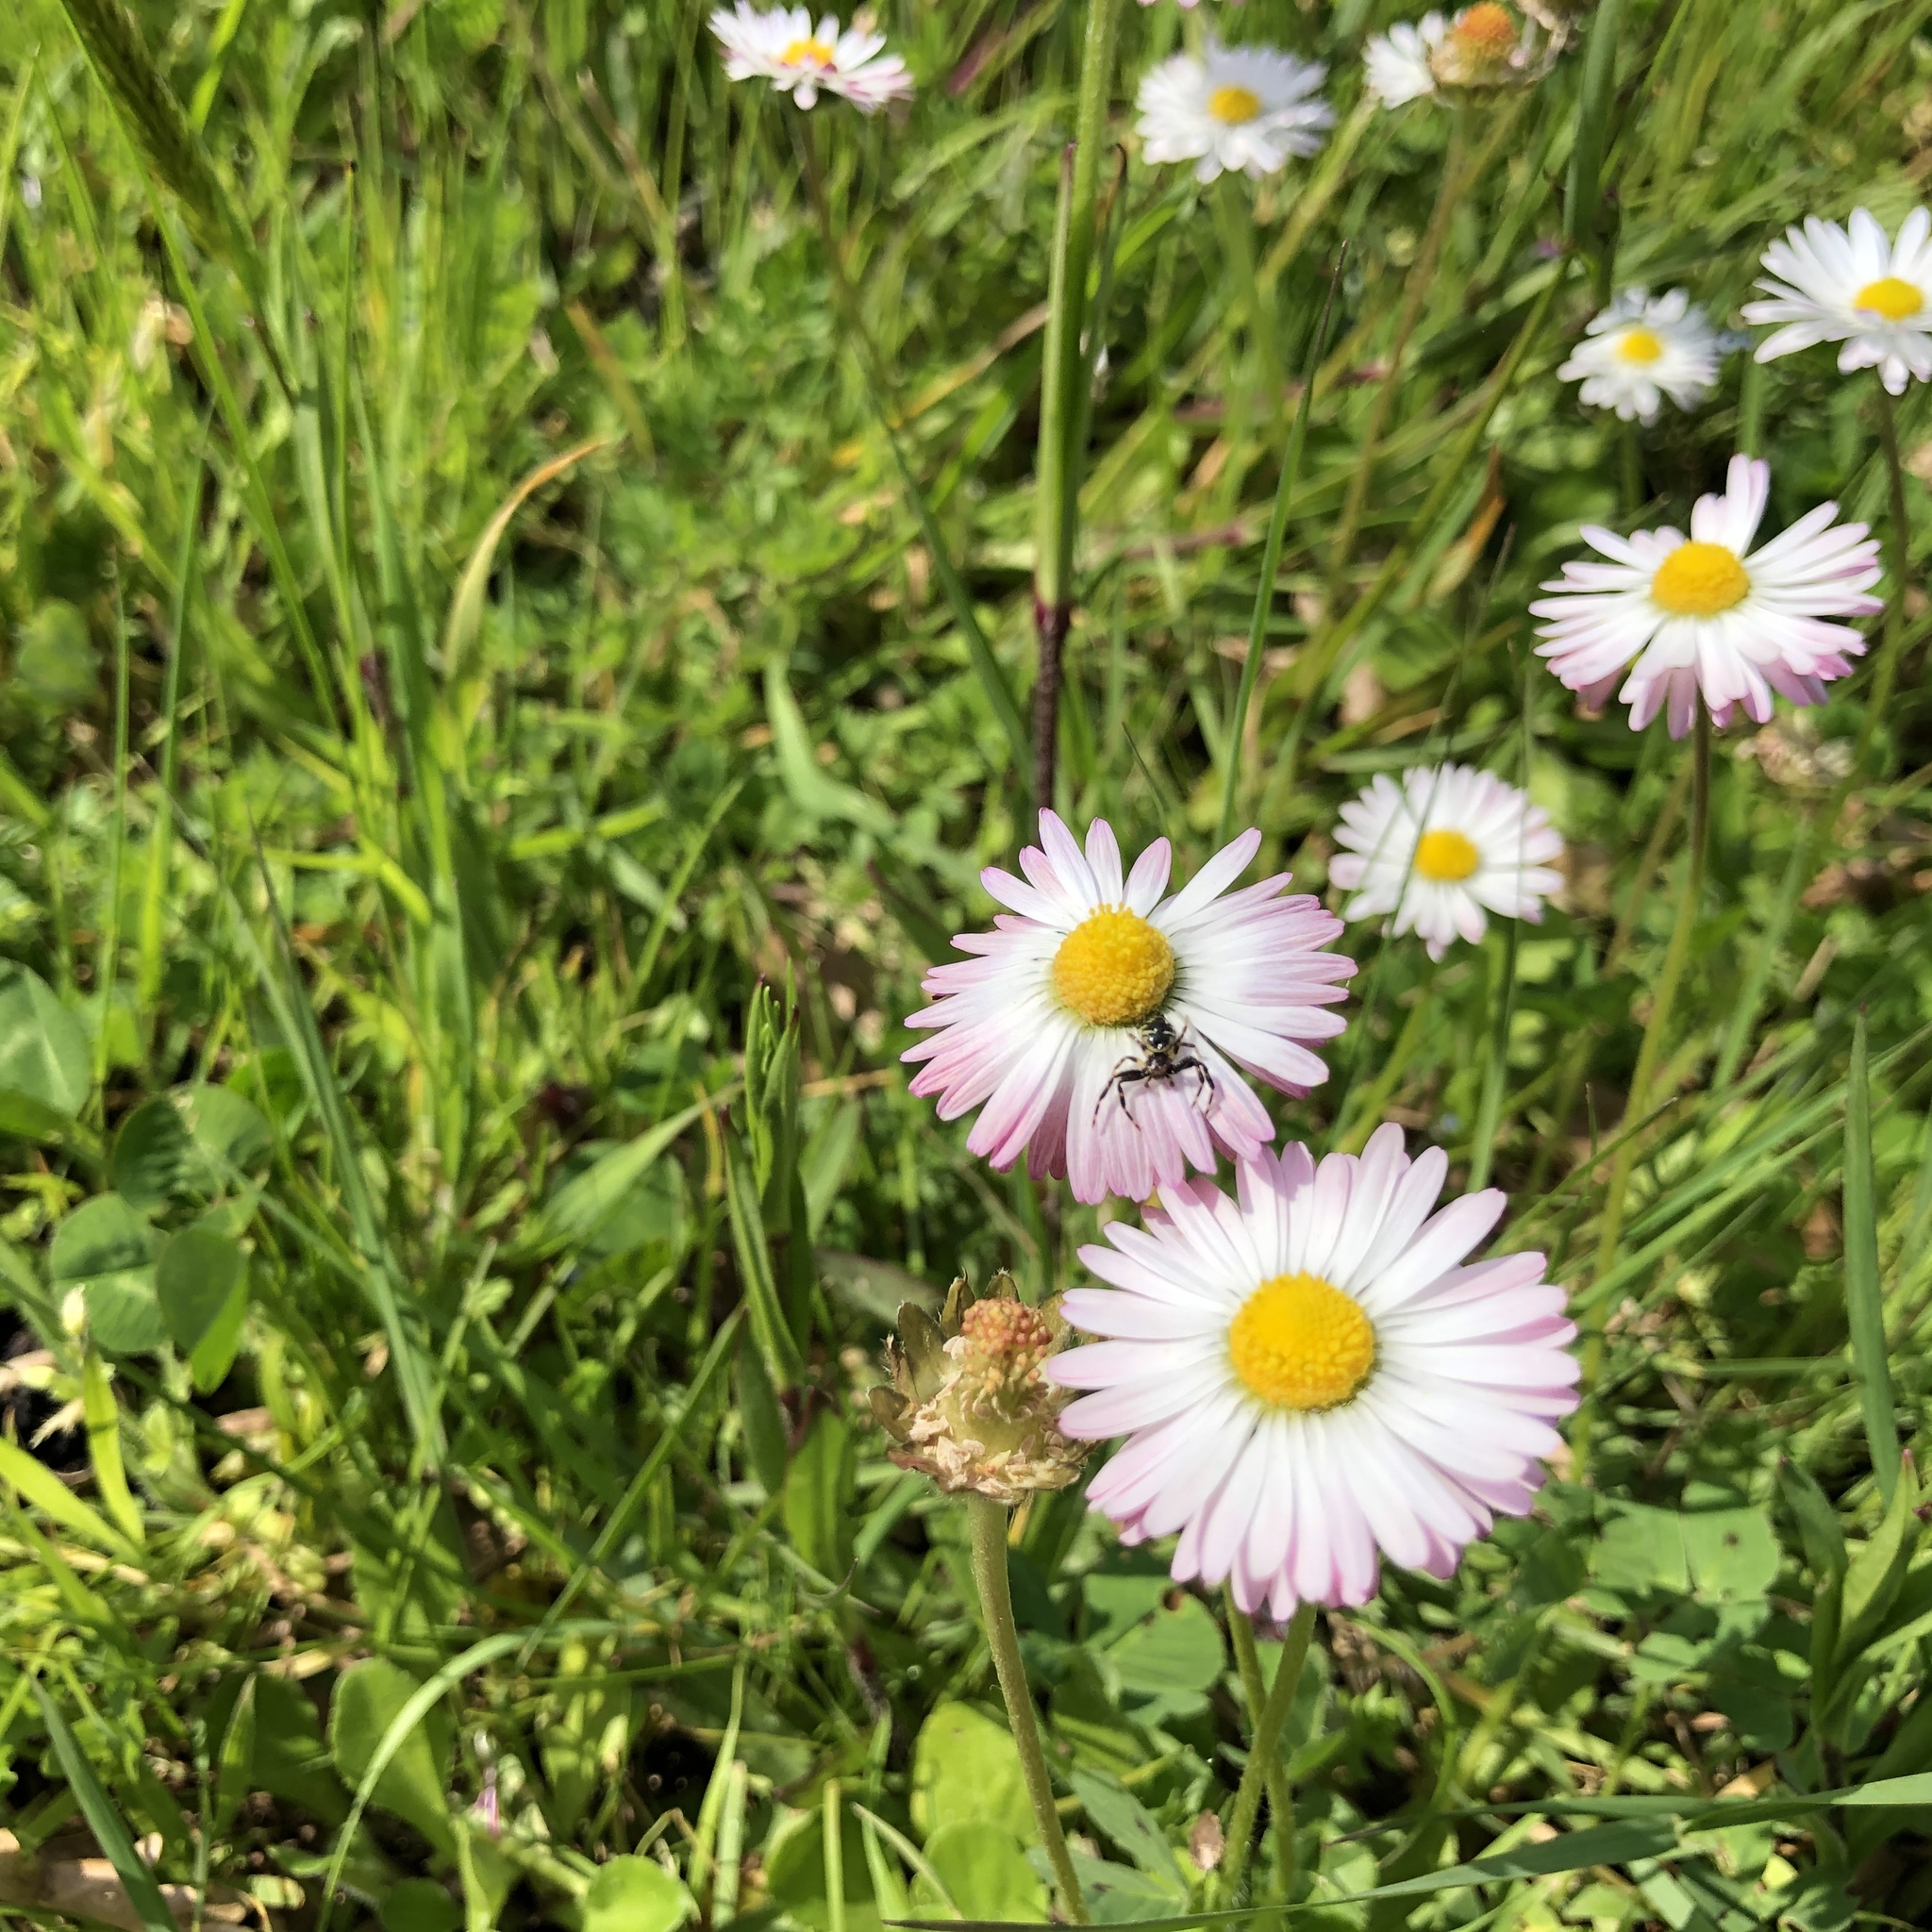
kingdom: Animalia
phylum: Arthropoda
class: Arachnida
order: Araneae
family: Thomisidae
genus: Synema
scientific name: Synema globosum
